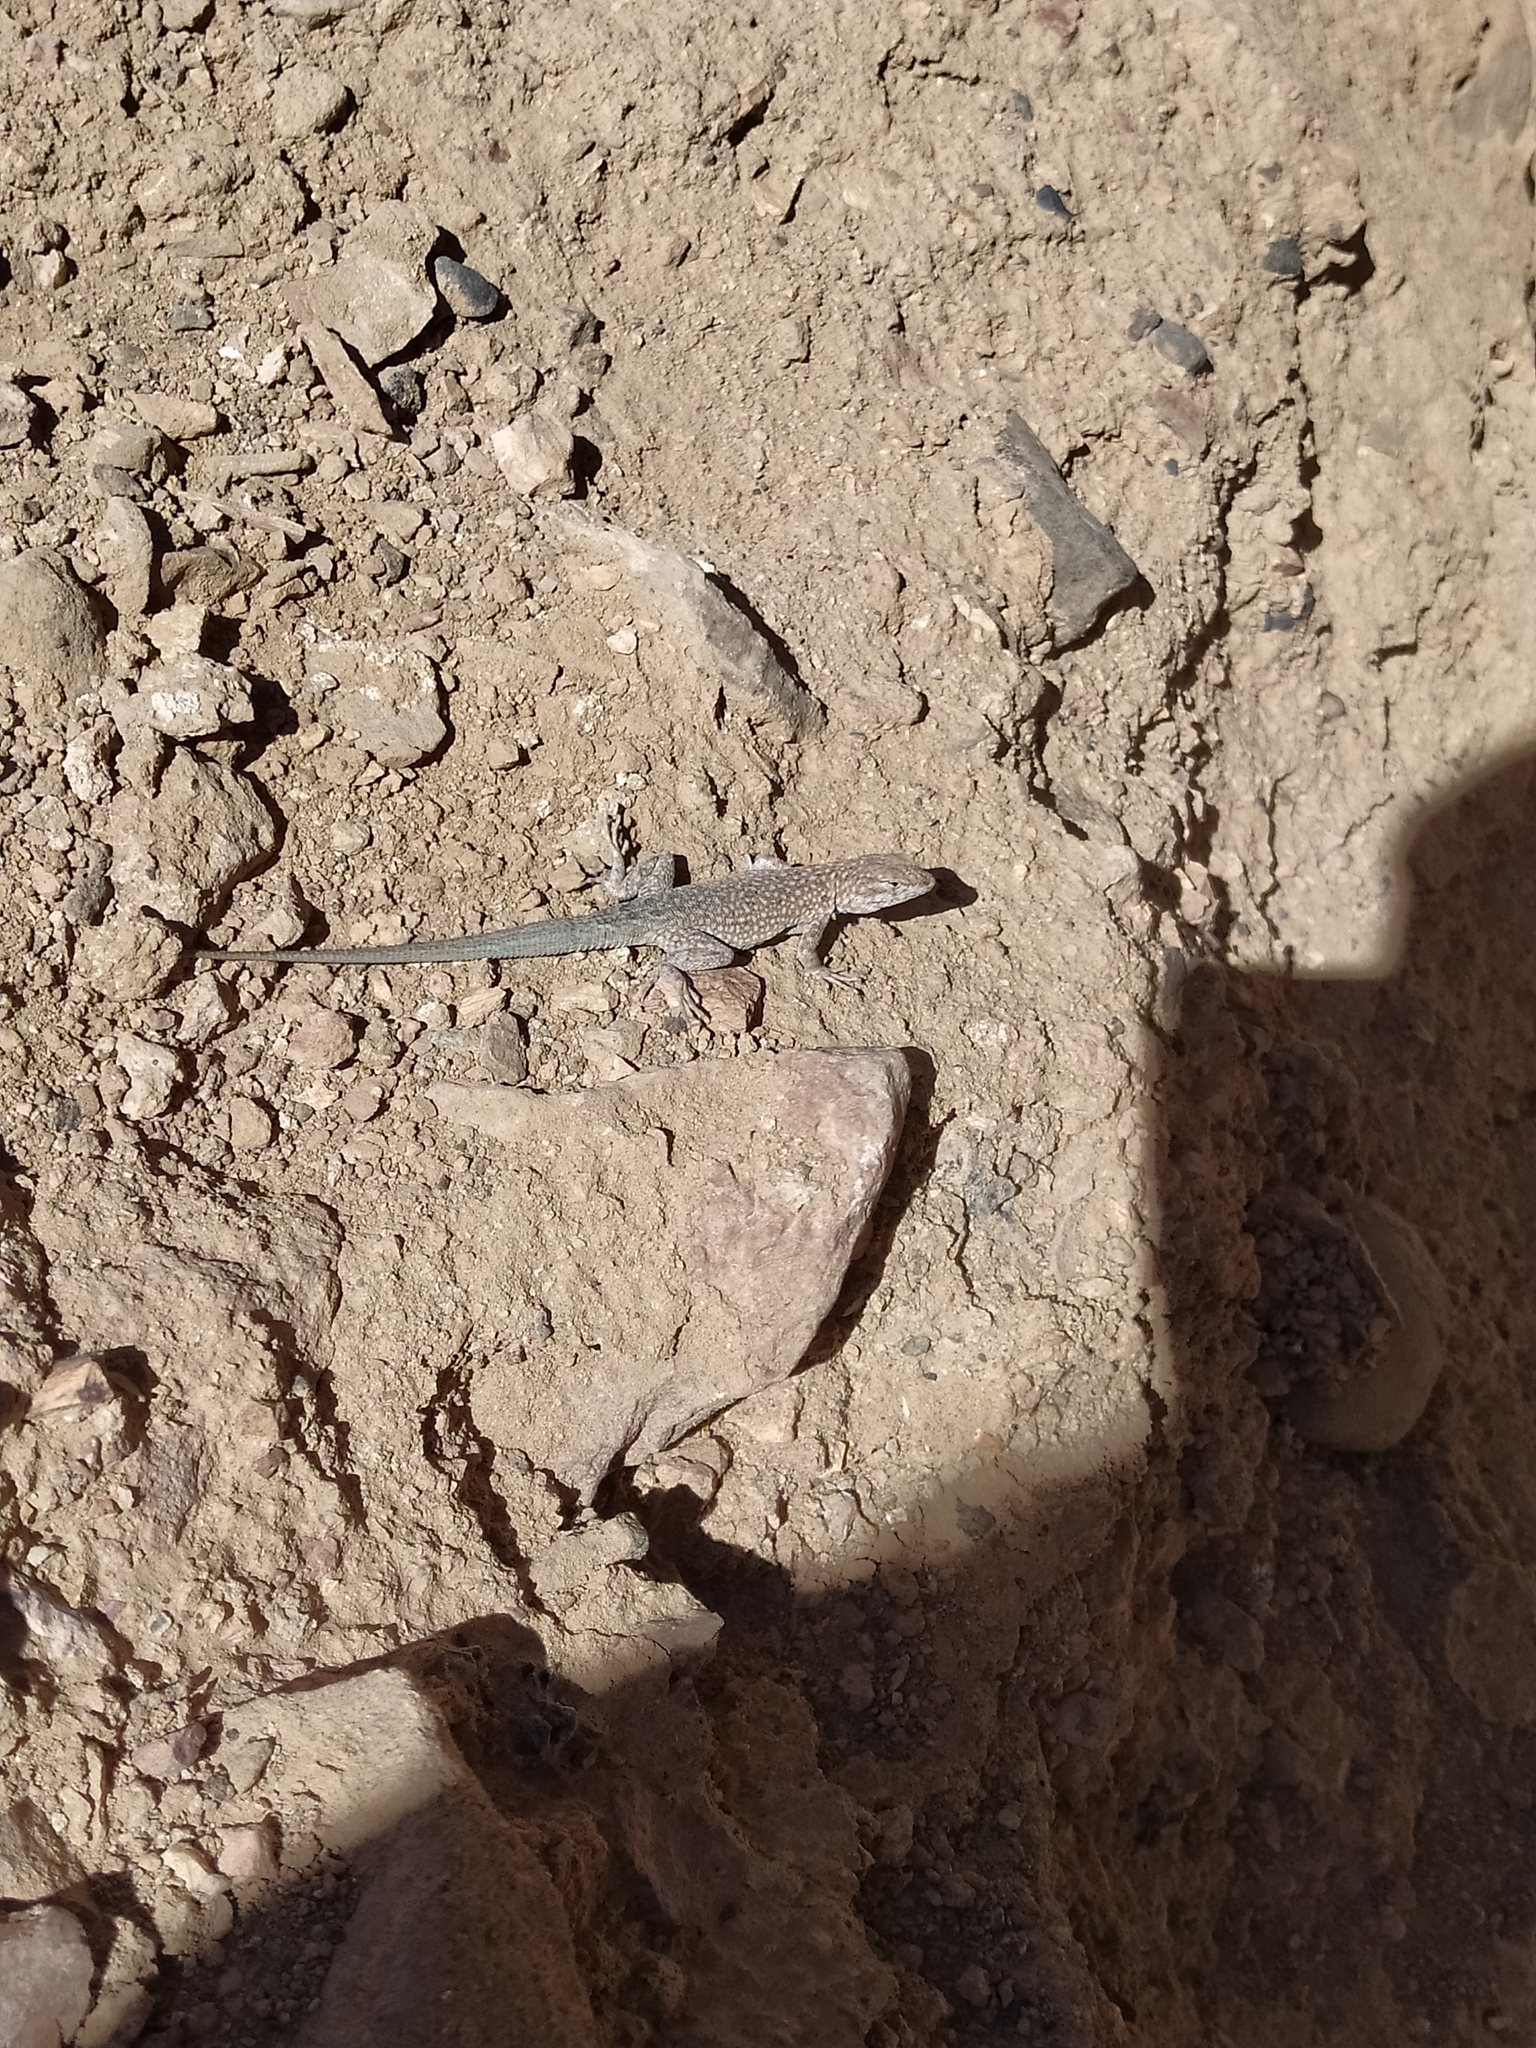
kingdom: Animalia
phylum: Chordata
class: Squamata
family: Phrynosomatidae
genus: Uta
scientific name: Uta stansburiana
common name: Side-blotched lizard
